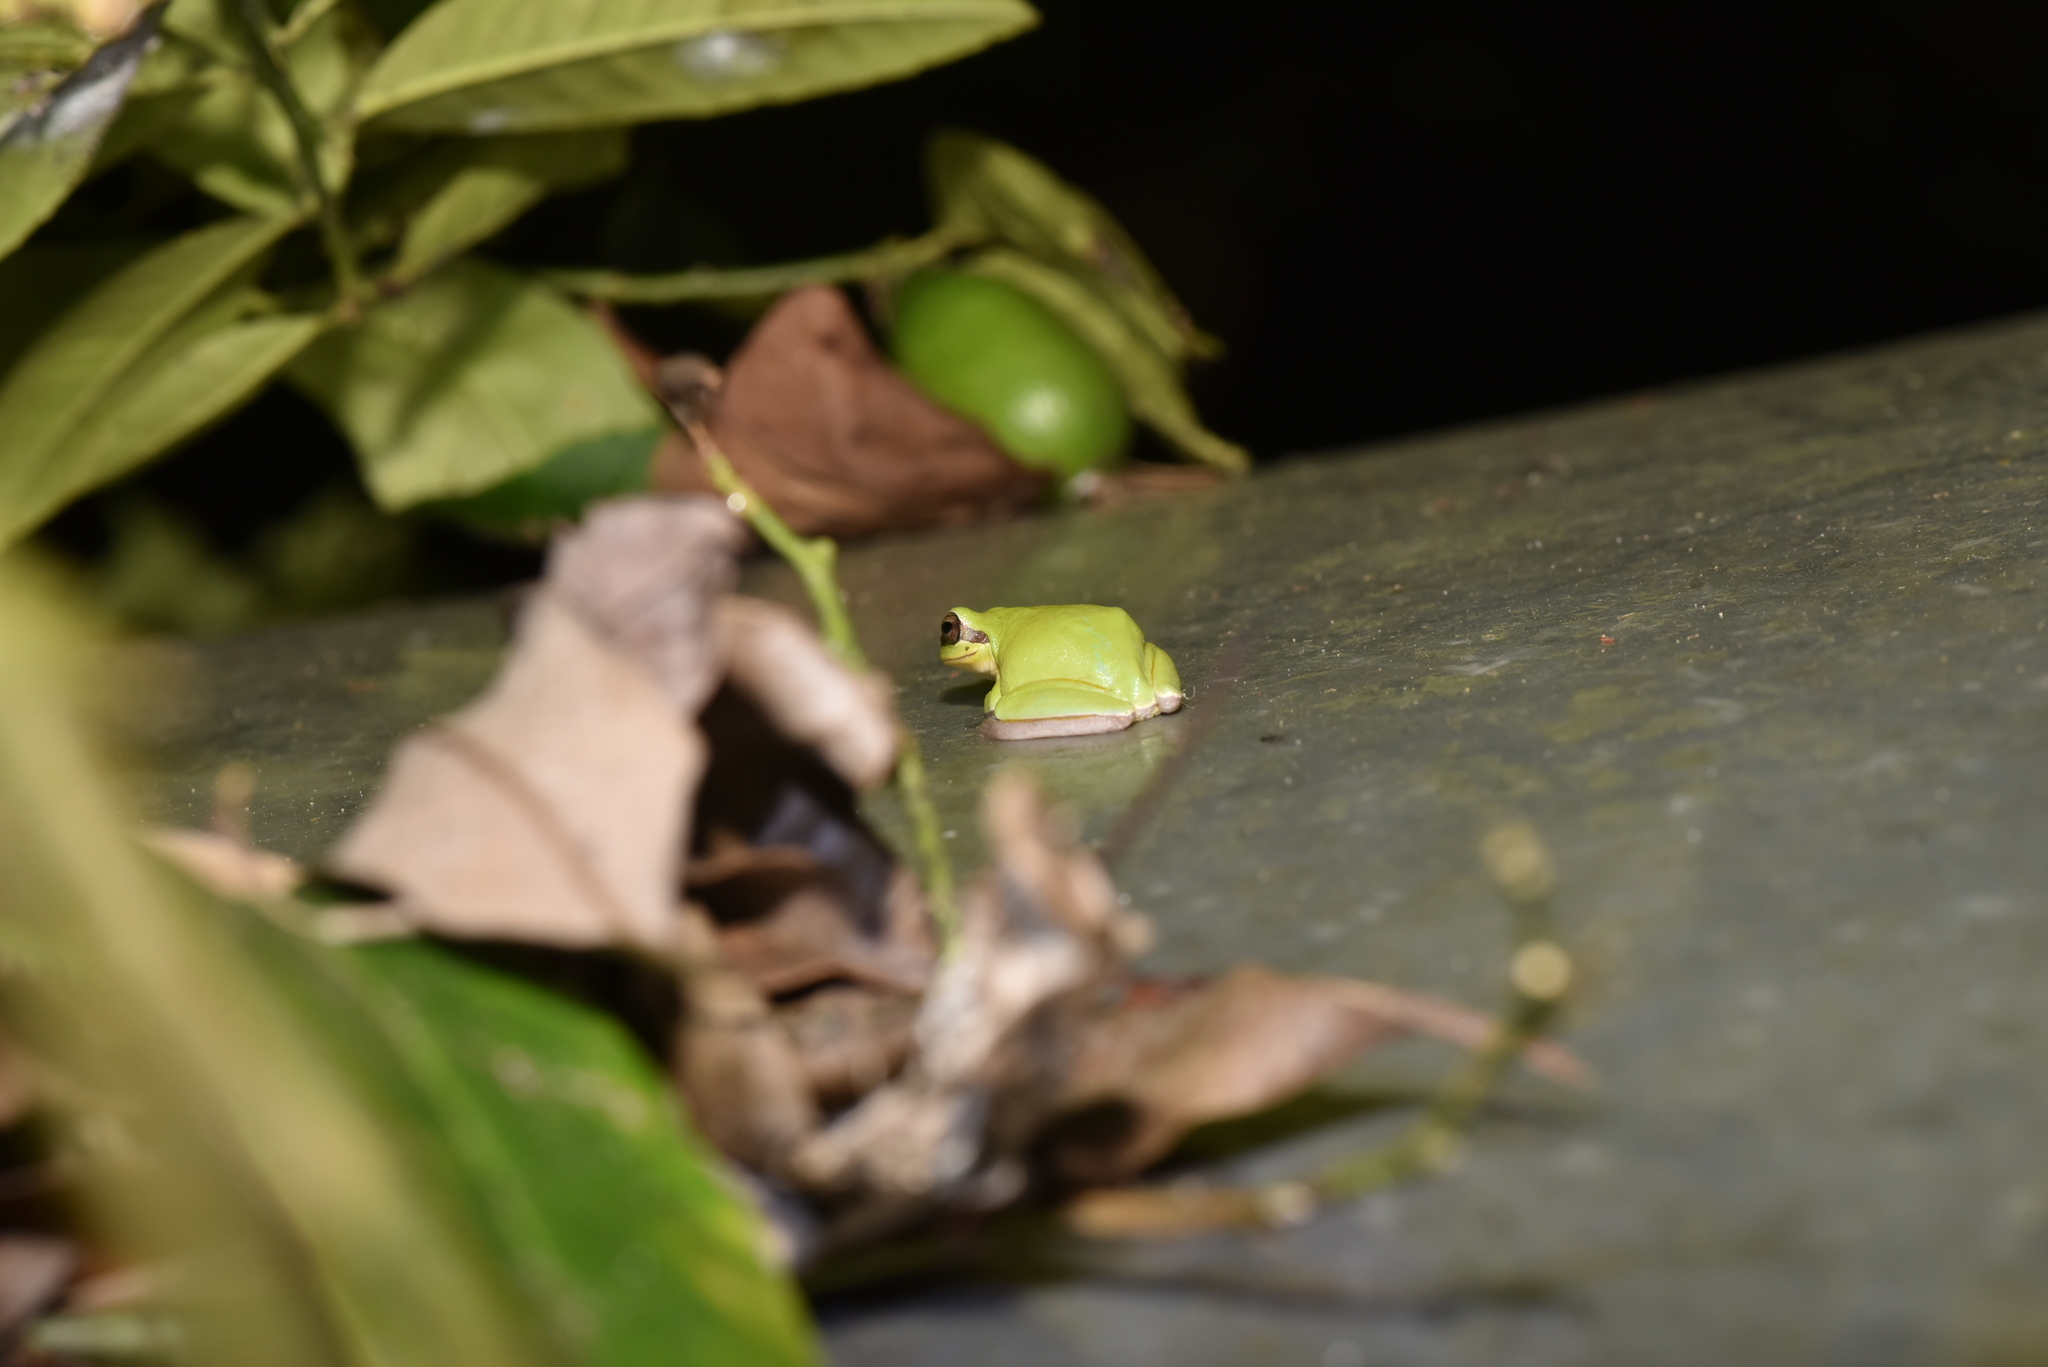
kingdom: Animalia
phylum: Chordata
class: Amphibia
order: Anura
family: Hylidae
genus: Hyla
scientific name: Hyla chinensis
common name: Common chinese treefrog
